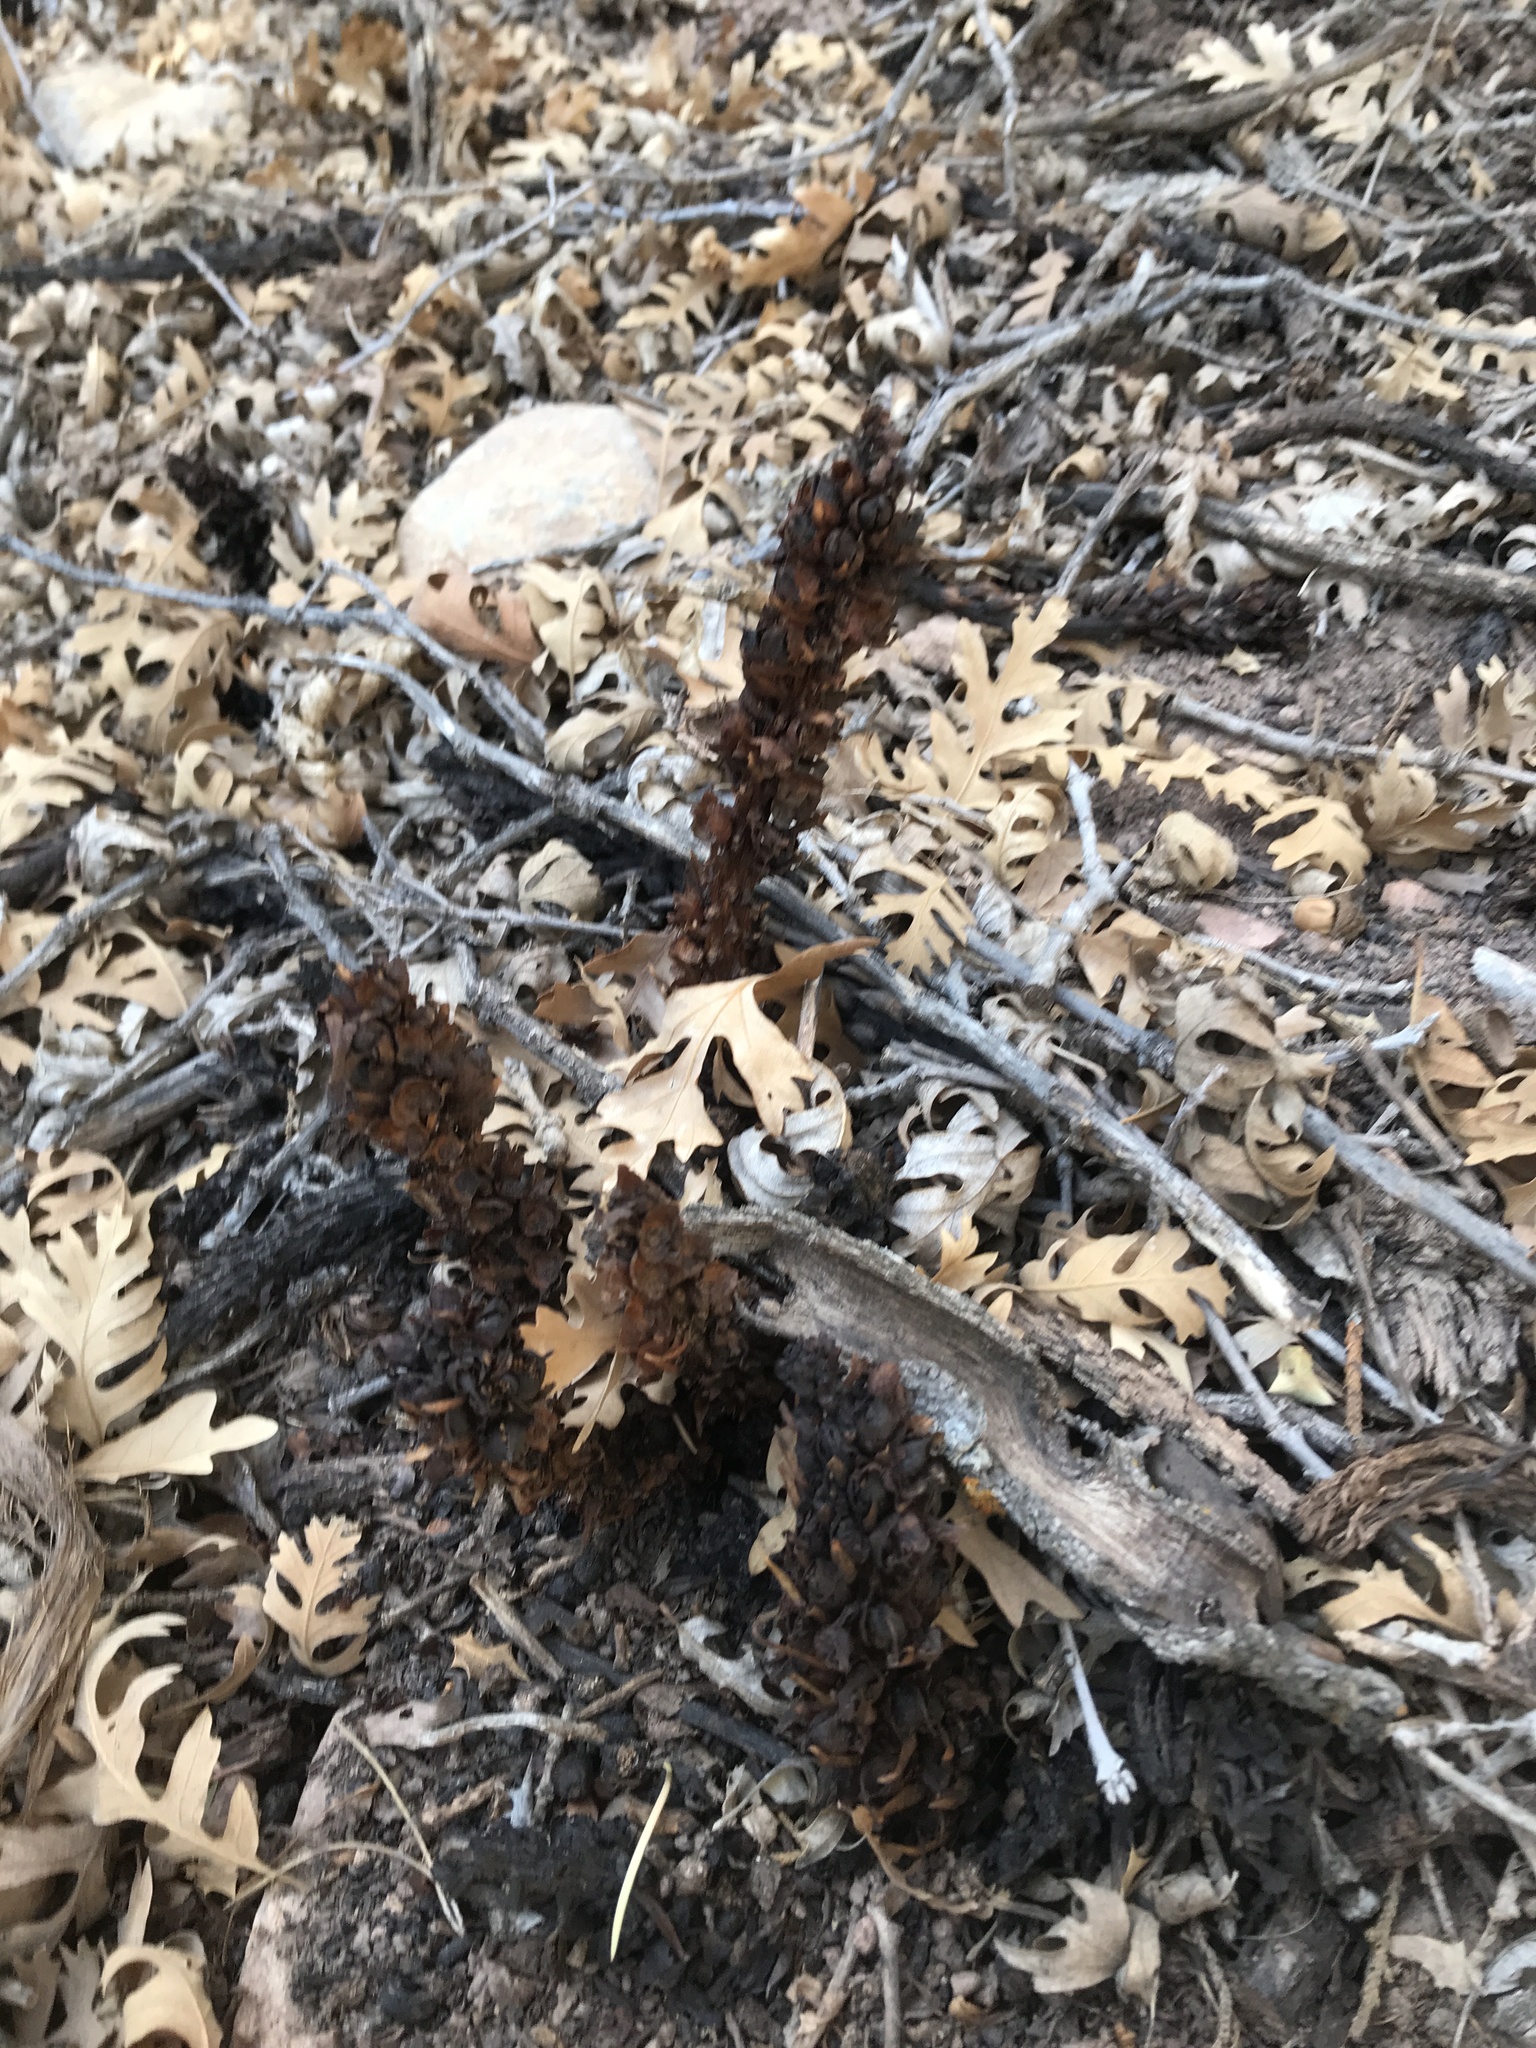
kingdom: Plantae
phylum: Tracheophyta
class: Magnoliopsida
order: Lamiales
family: Orobanchaceae
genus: Conopholis
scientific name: Conopholis alpina
